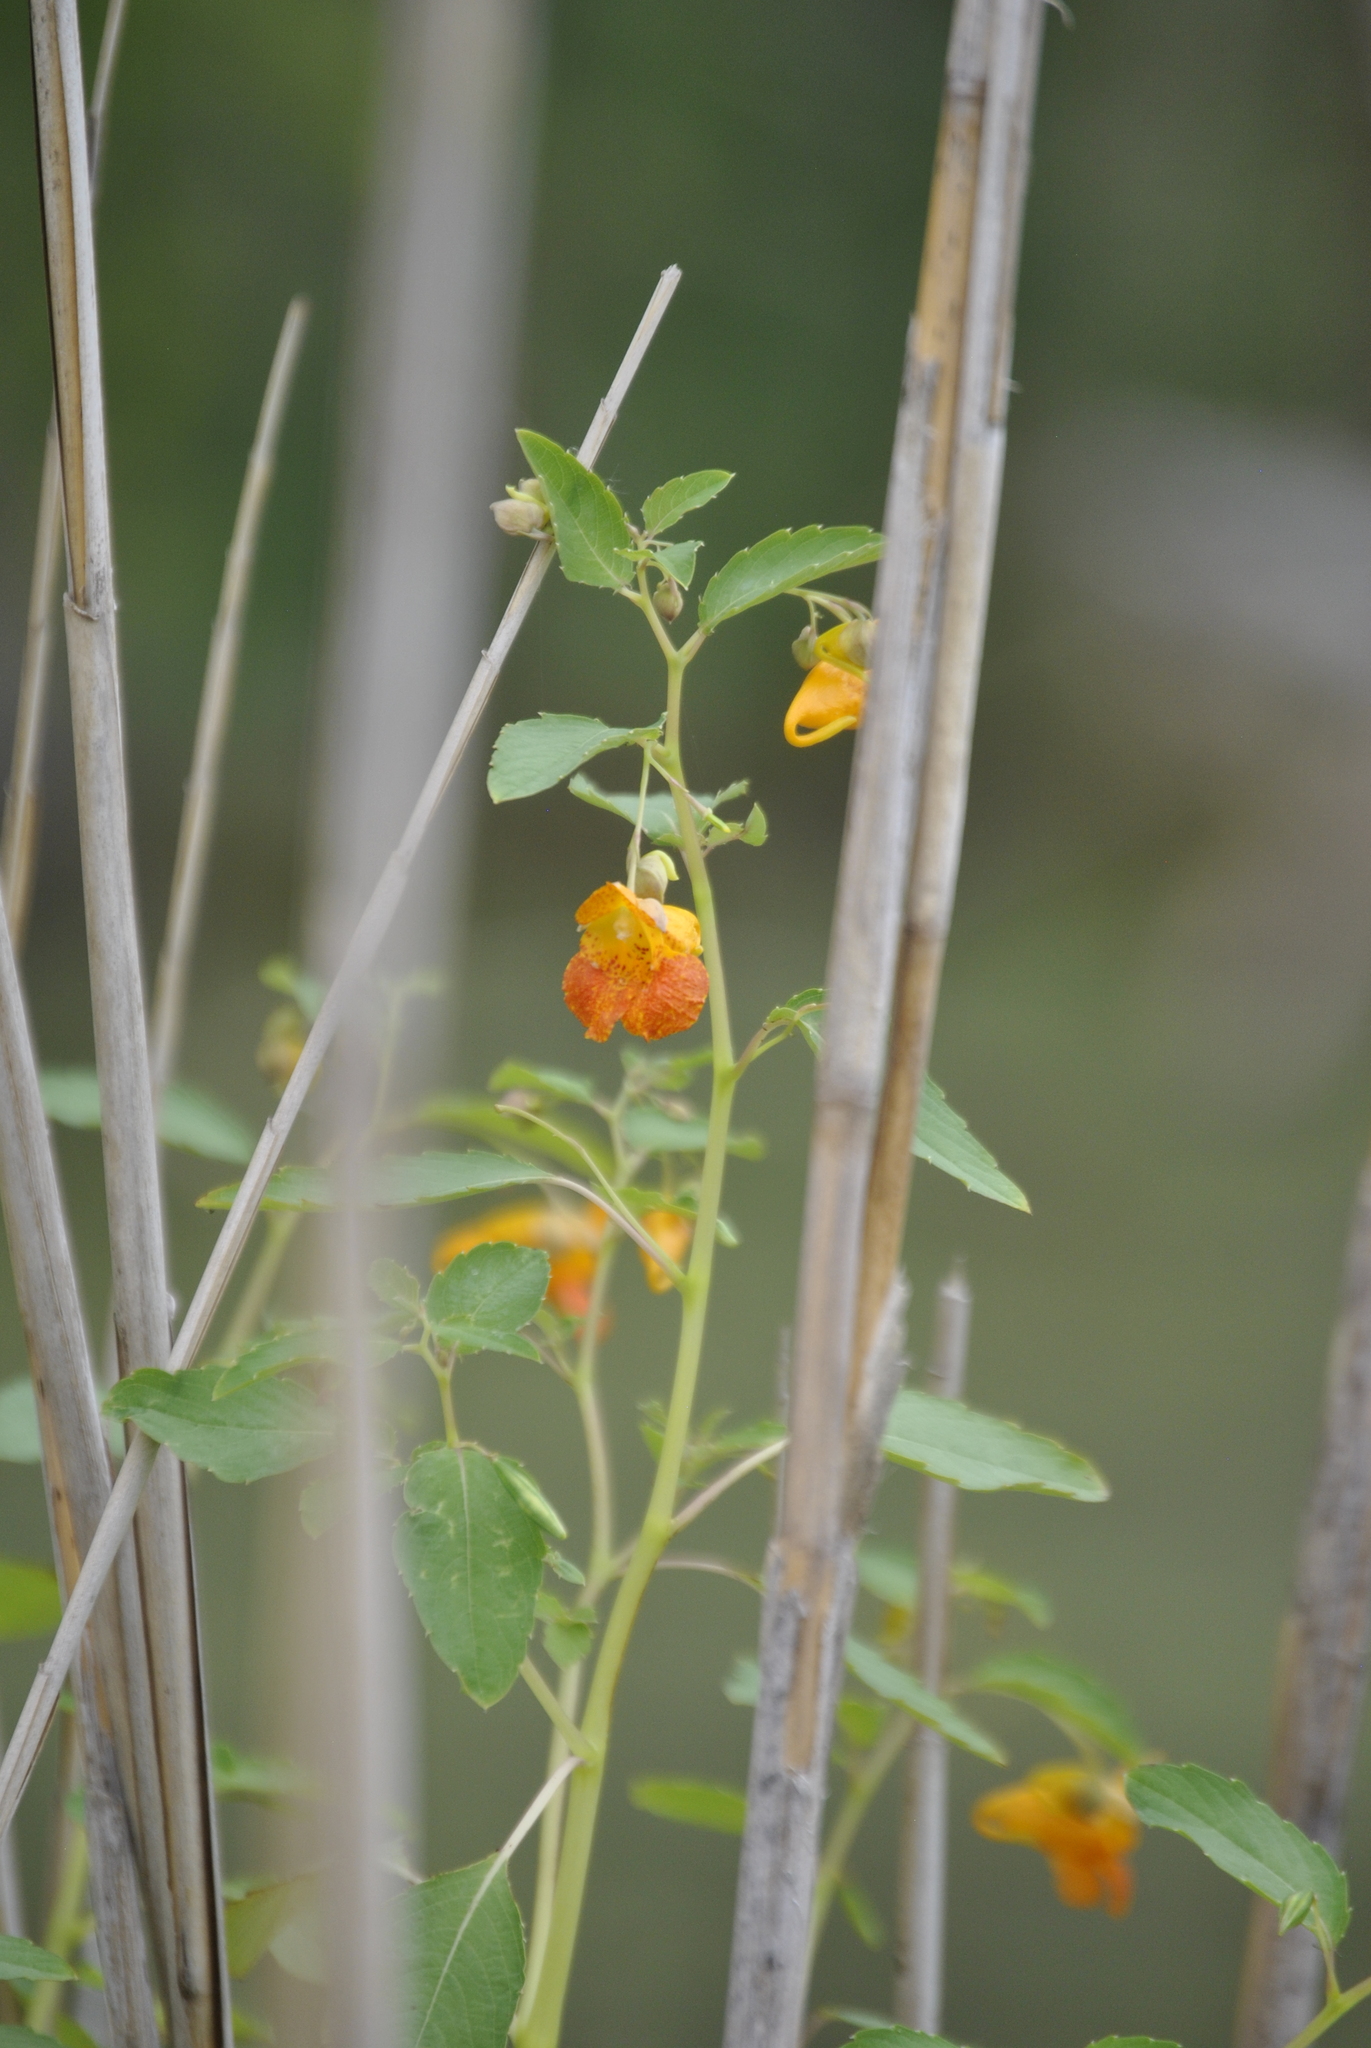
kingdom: Plantae
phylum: Tracheophyta
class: Magnoliopsida
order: Ericales
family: Balsaminaceae
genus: Impatiens
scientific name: Impatiens capensis
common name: Orange balsam
